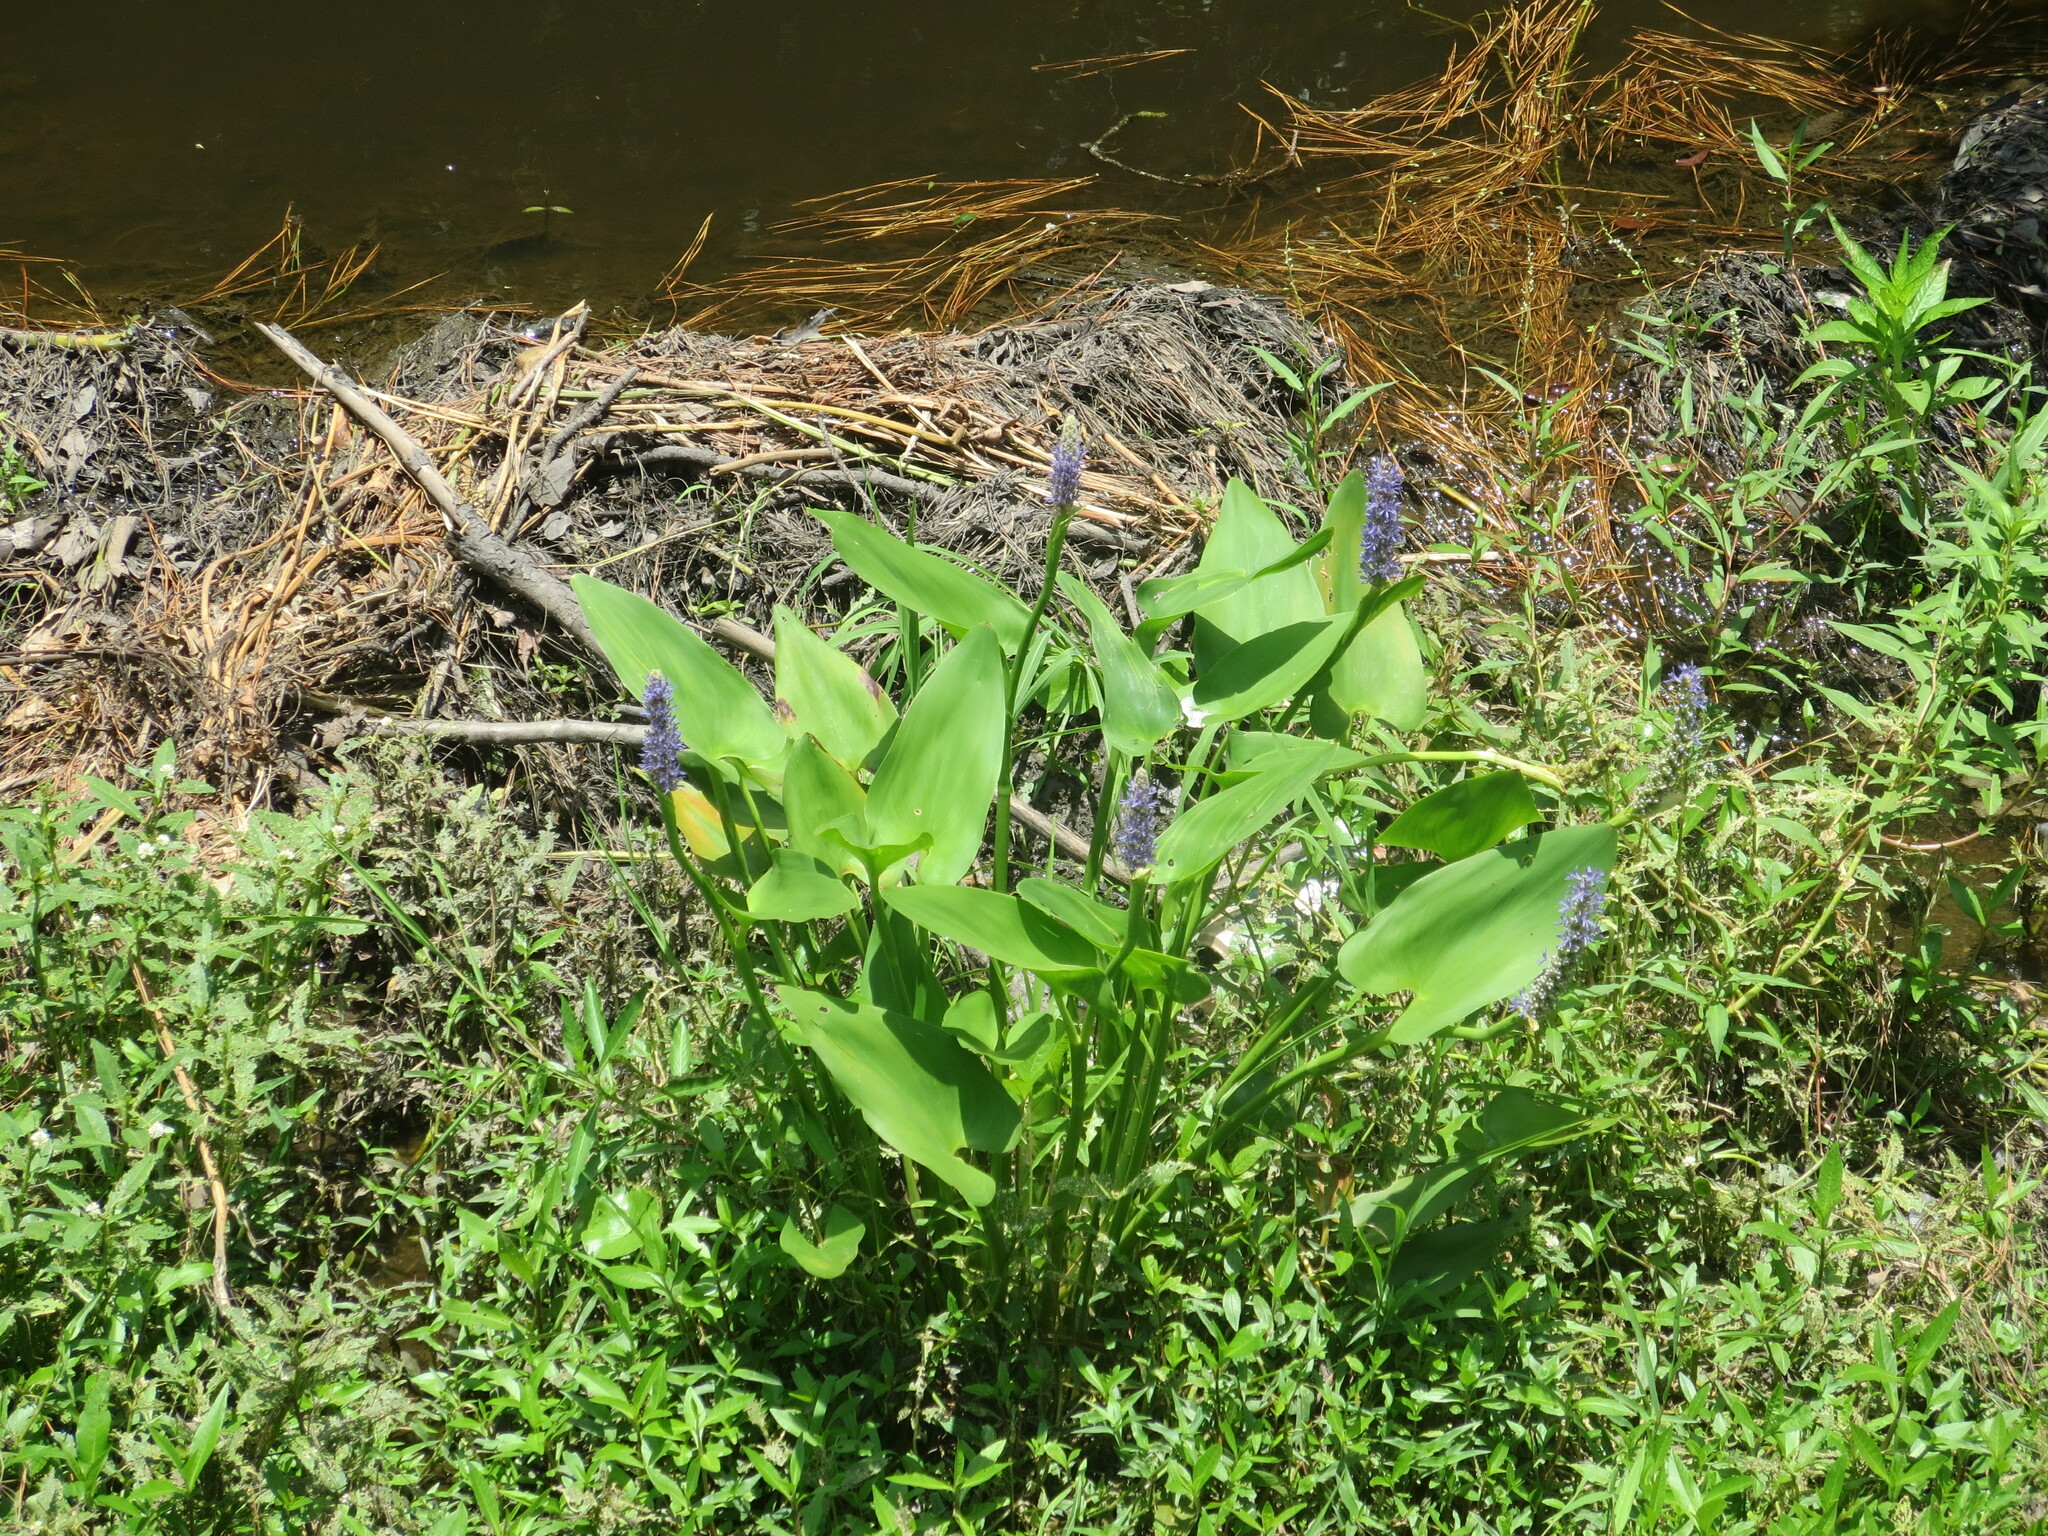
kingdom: Plantae
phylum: Tracheophyta
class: Liliopsida
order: Commelinales
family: Pontederiaceae
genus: Pontederia
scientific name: Pontederia cordata
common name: Pickerelweed
